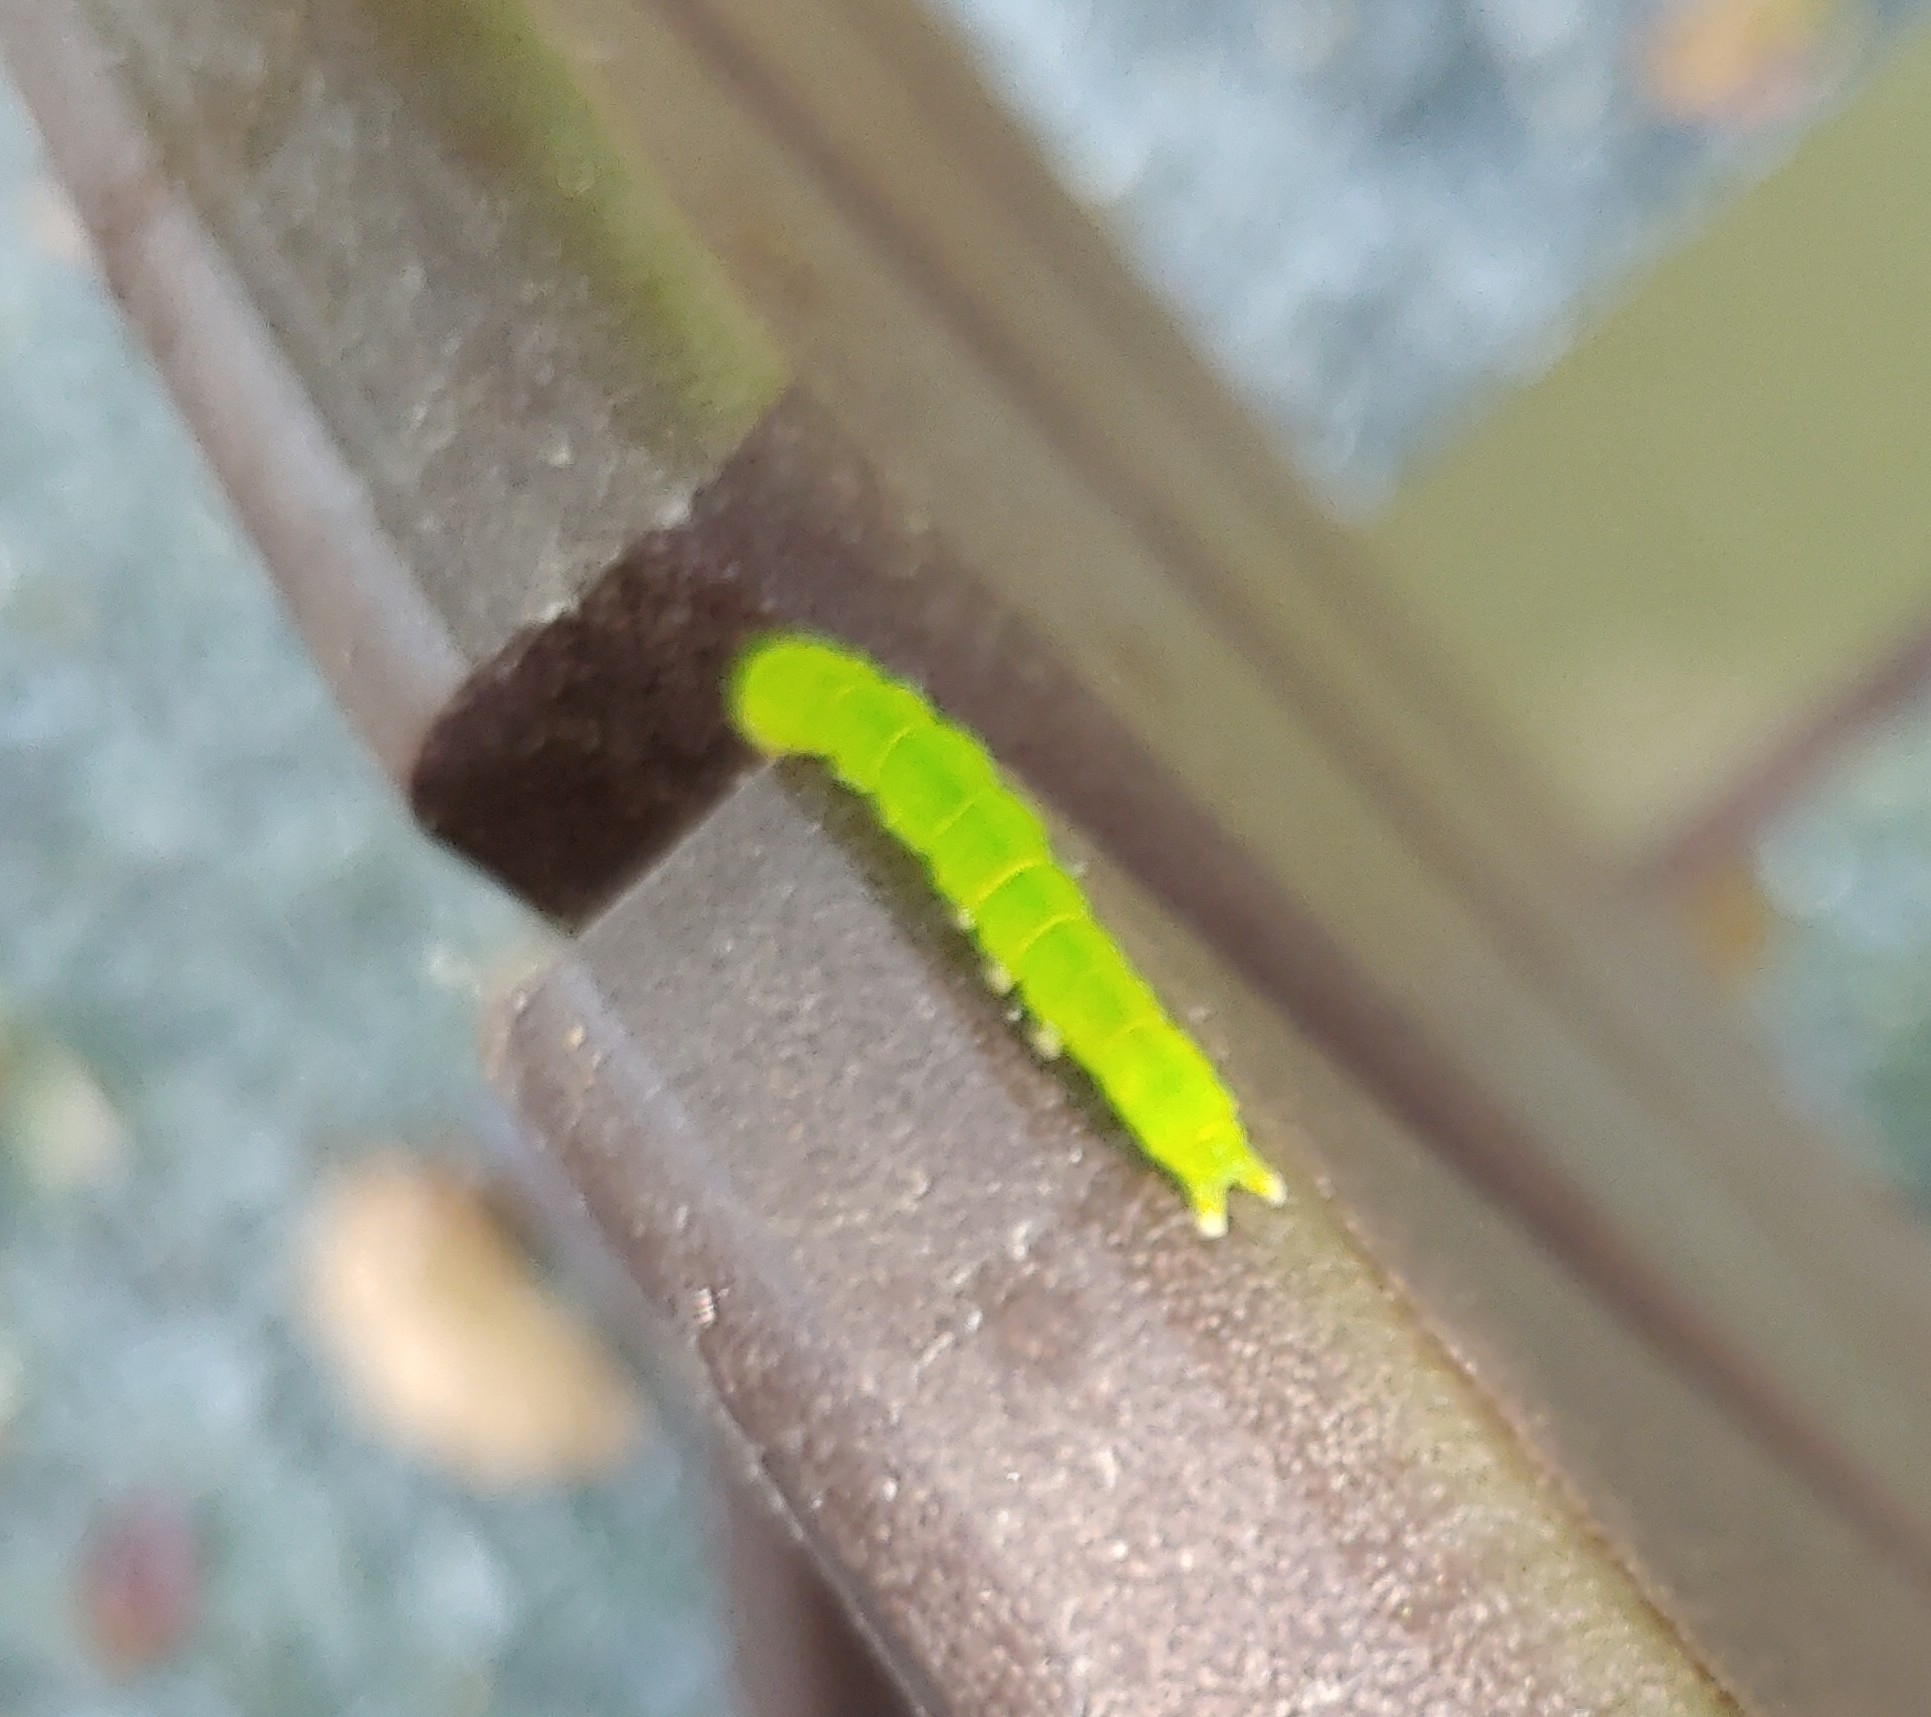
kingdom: Animalia
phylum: Arthropoda
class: Insecta
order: Lepidoptera
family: Pieridae
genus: Phoebis
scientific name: Phoebis sennae
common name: Cloudless sulphur
